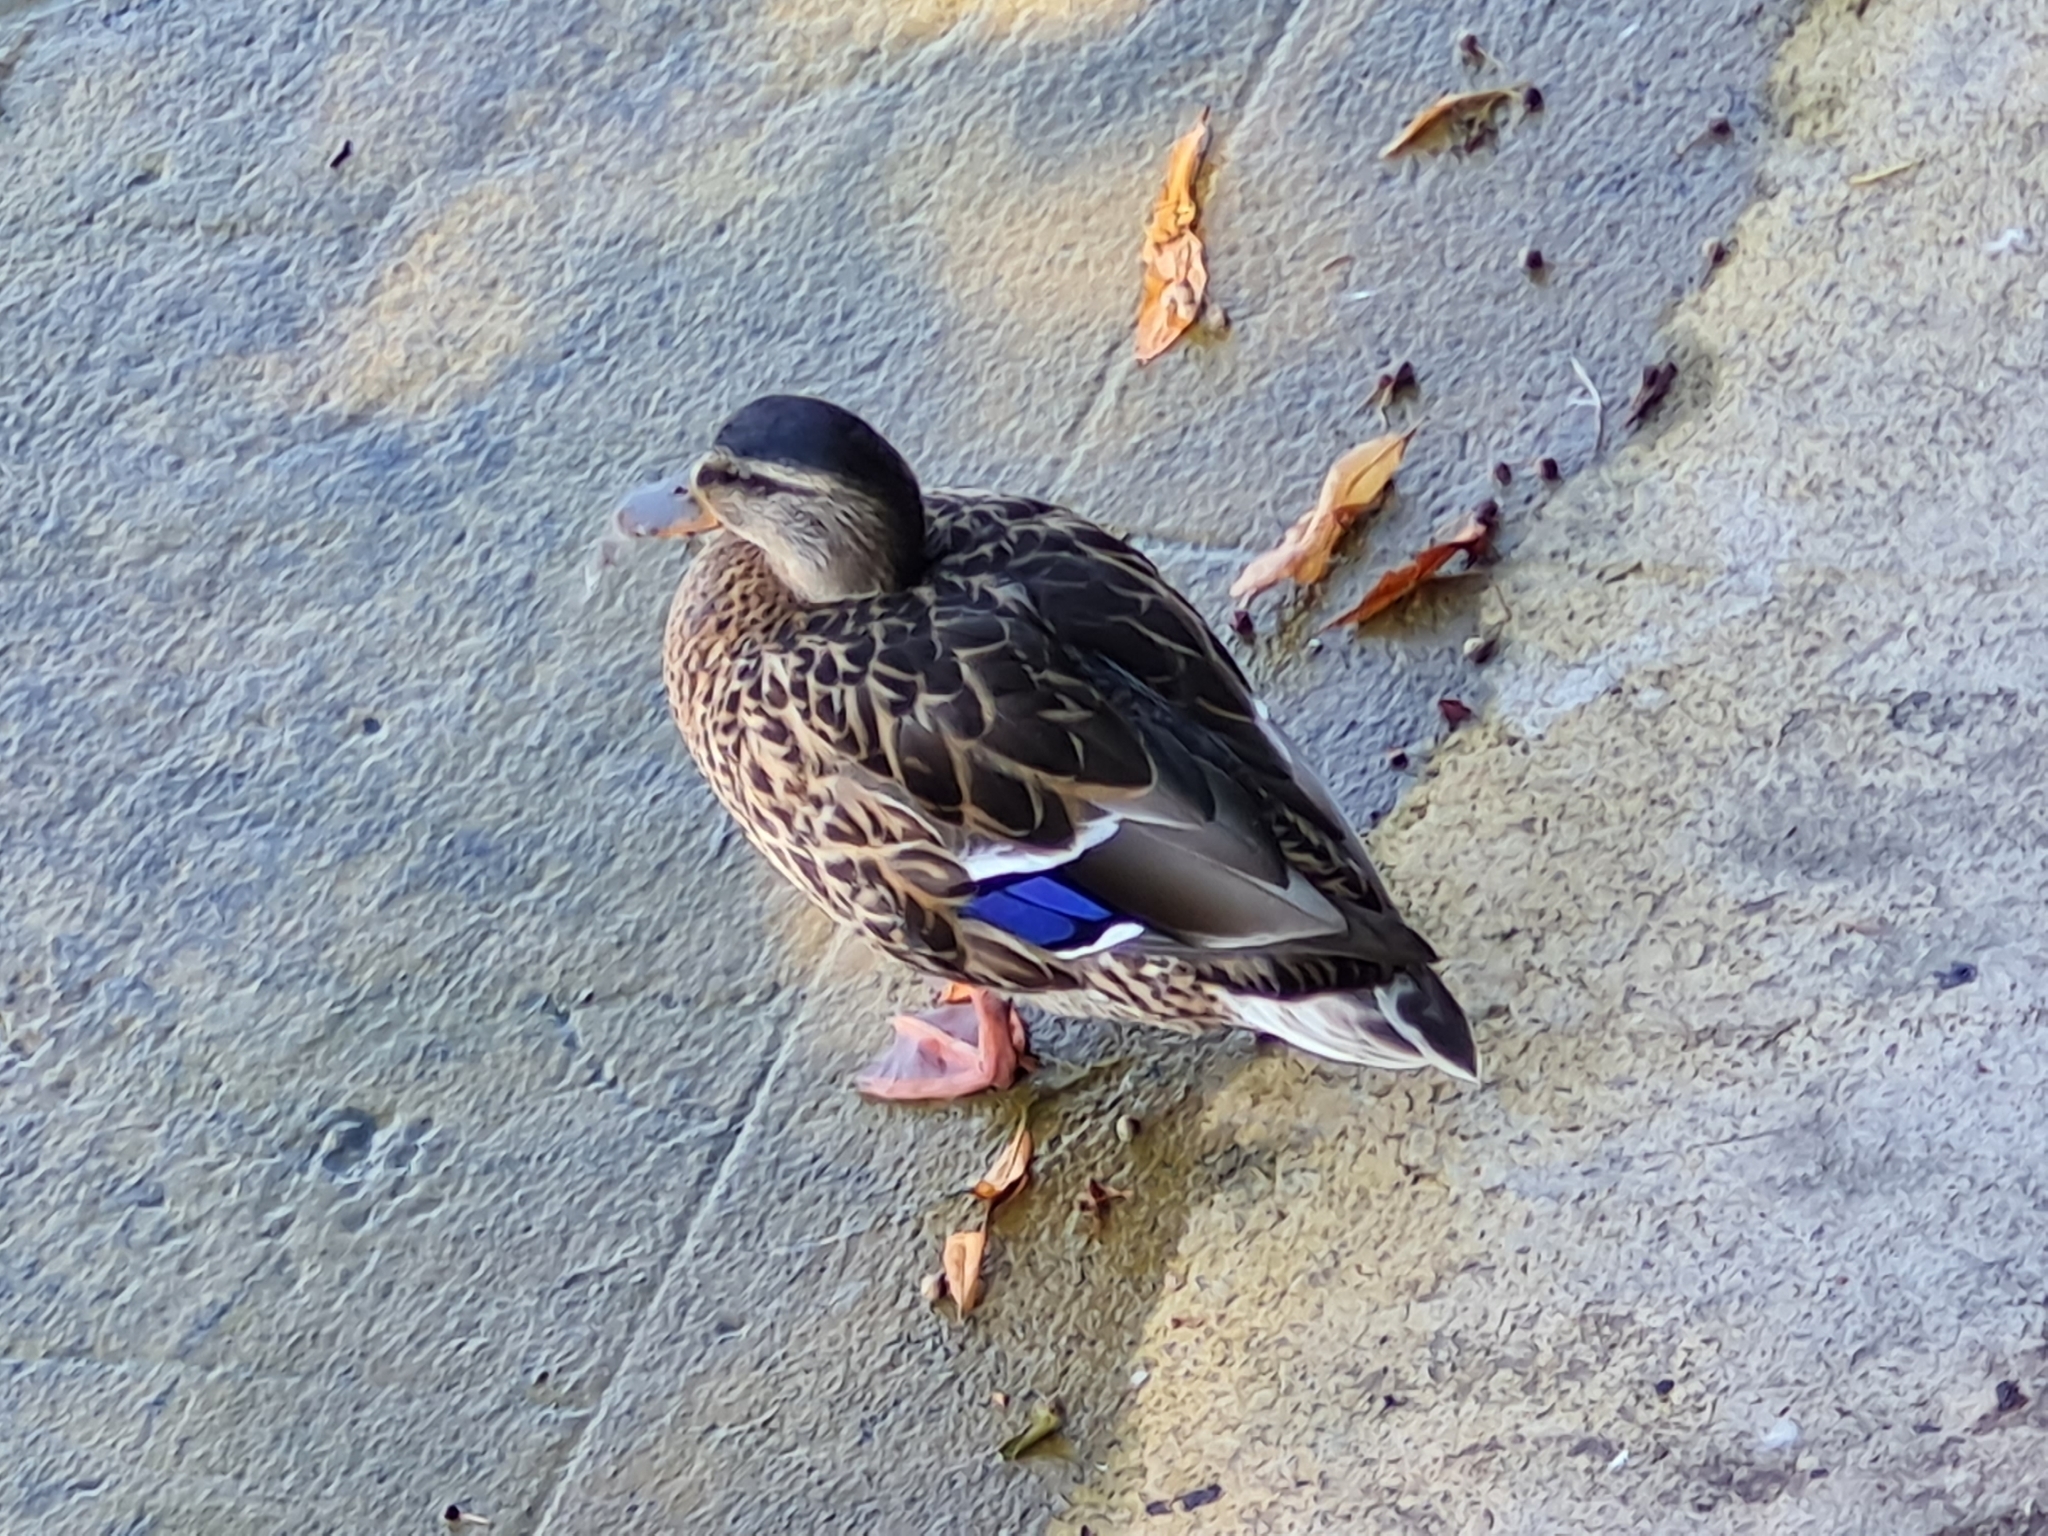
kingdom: Animalia
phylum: Chordata
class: Aves
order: Anseriformes
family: Anatidae
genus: Anas
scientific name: Anas platyrhynchos
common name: Mallard
